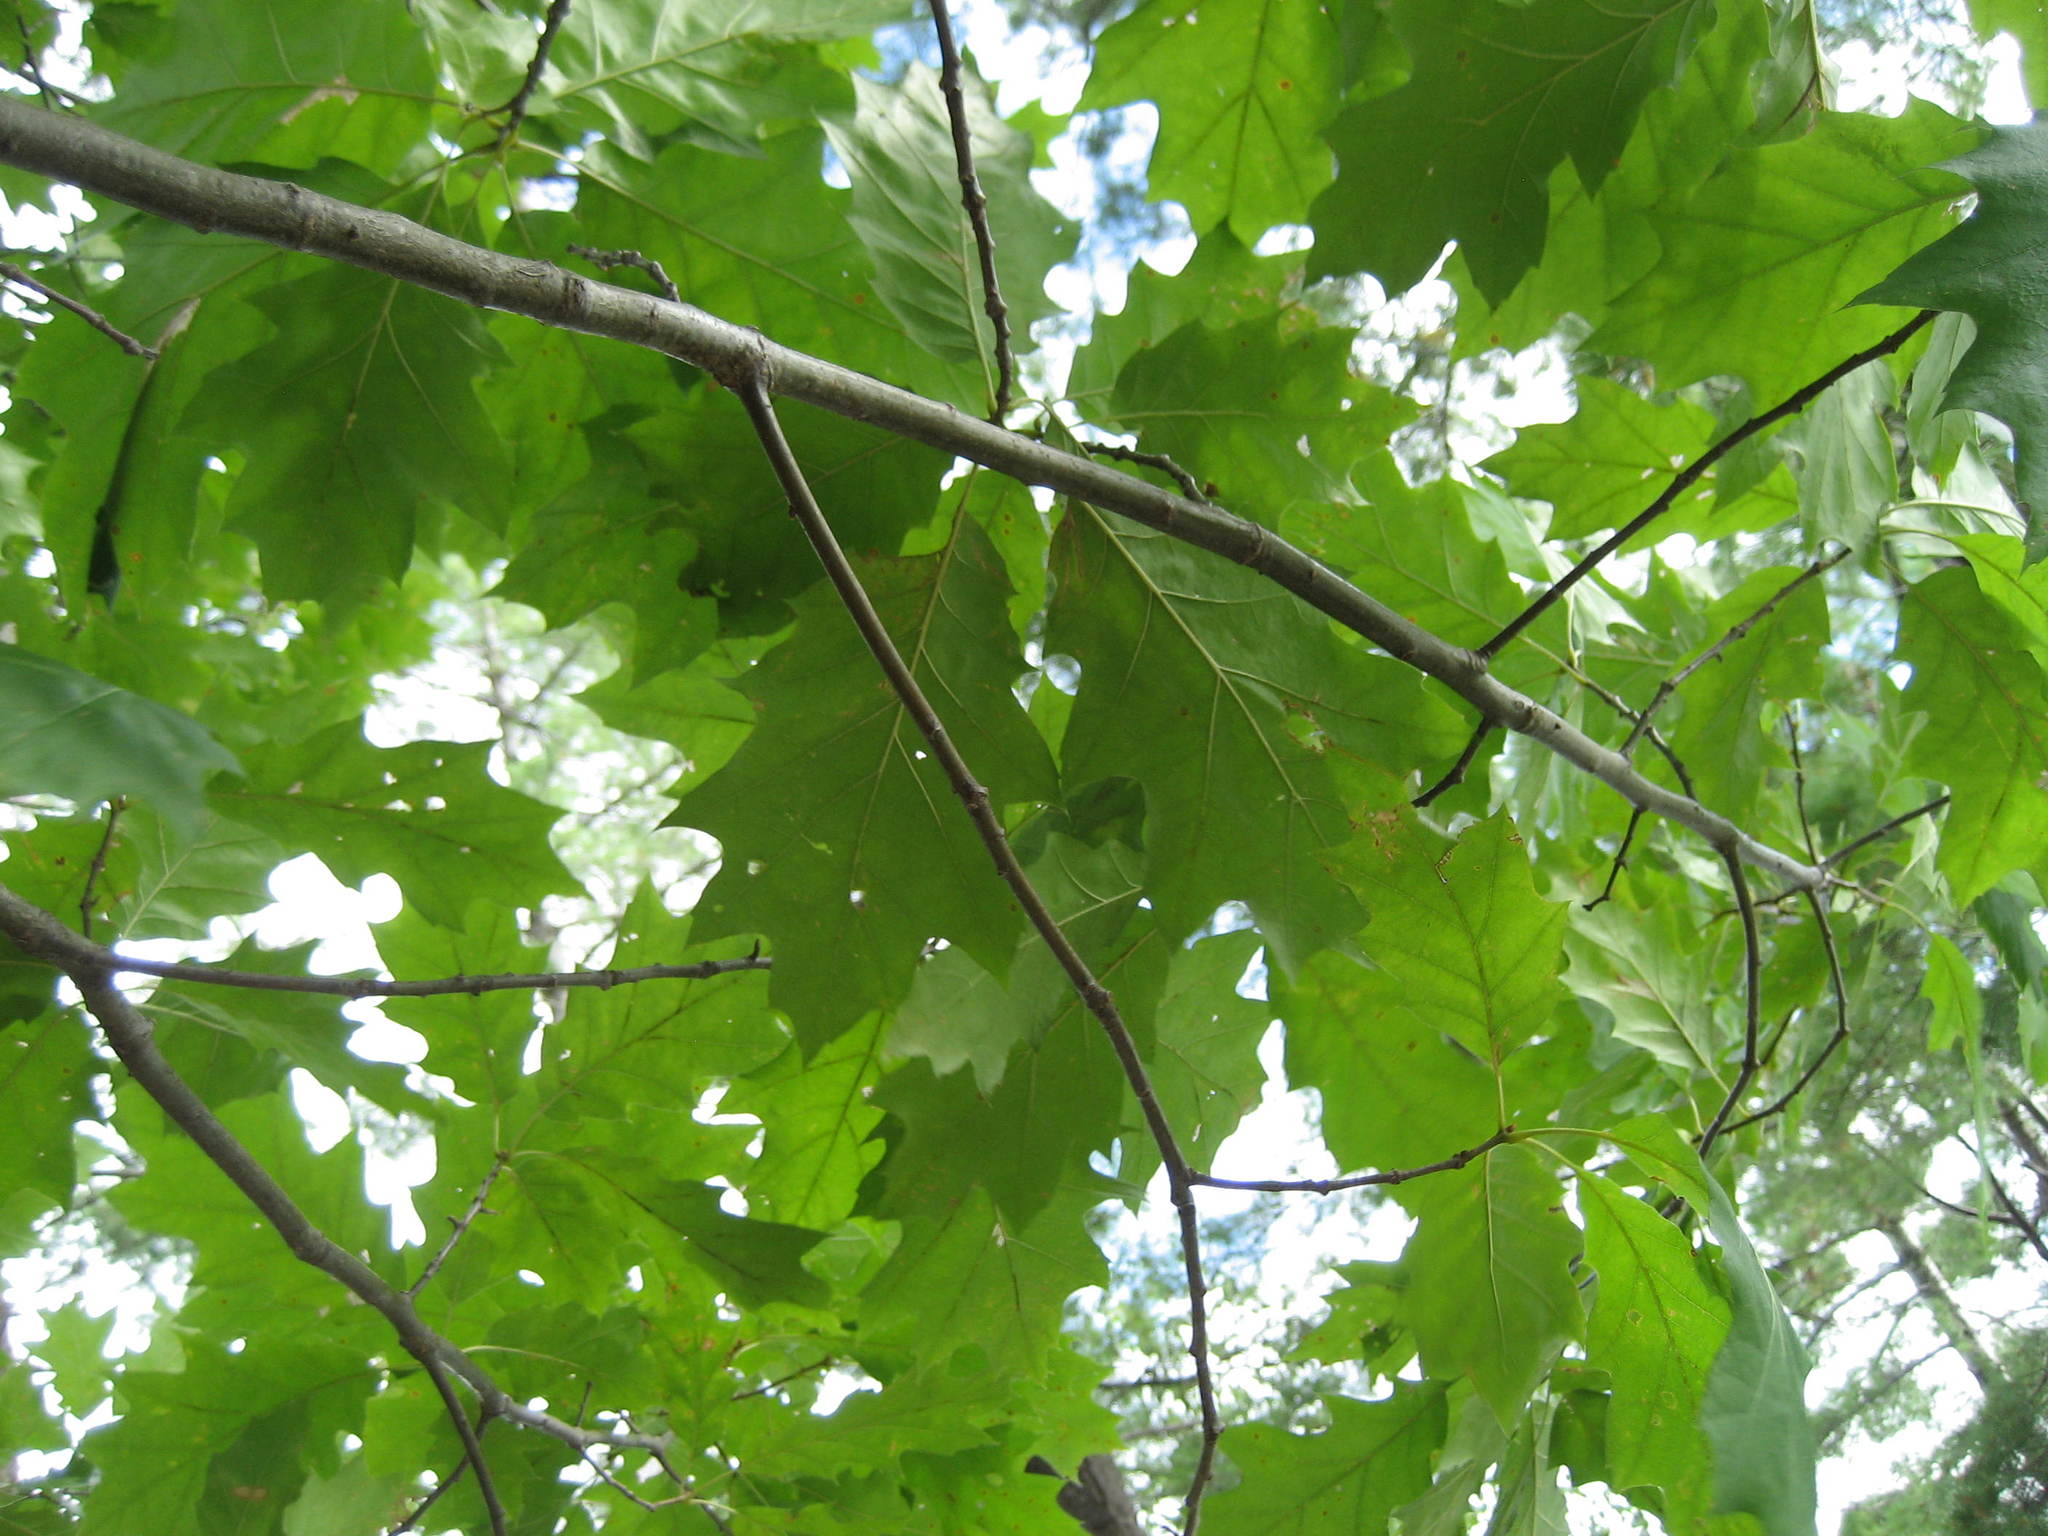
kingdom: Plantae
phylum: Tracheophyta
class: Magnoliopsida
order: Fagales
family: Fagaceae
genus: Quercus
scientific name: Quercus rubra
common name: Red oak
